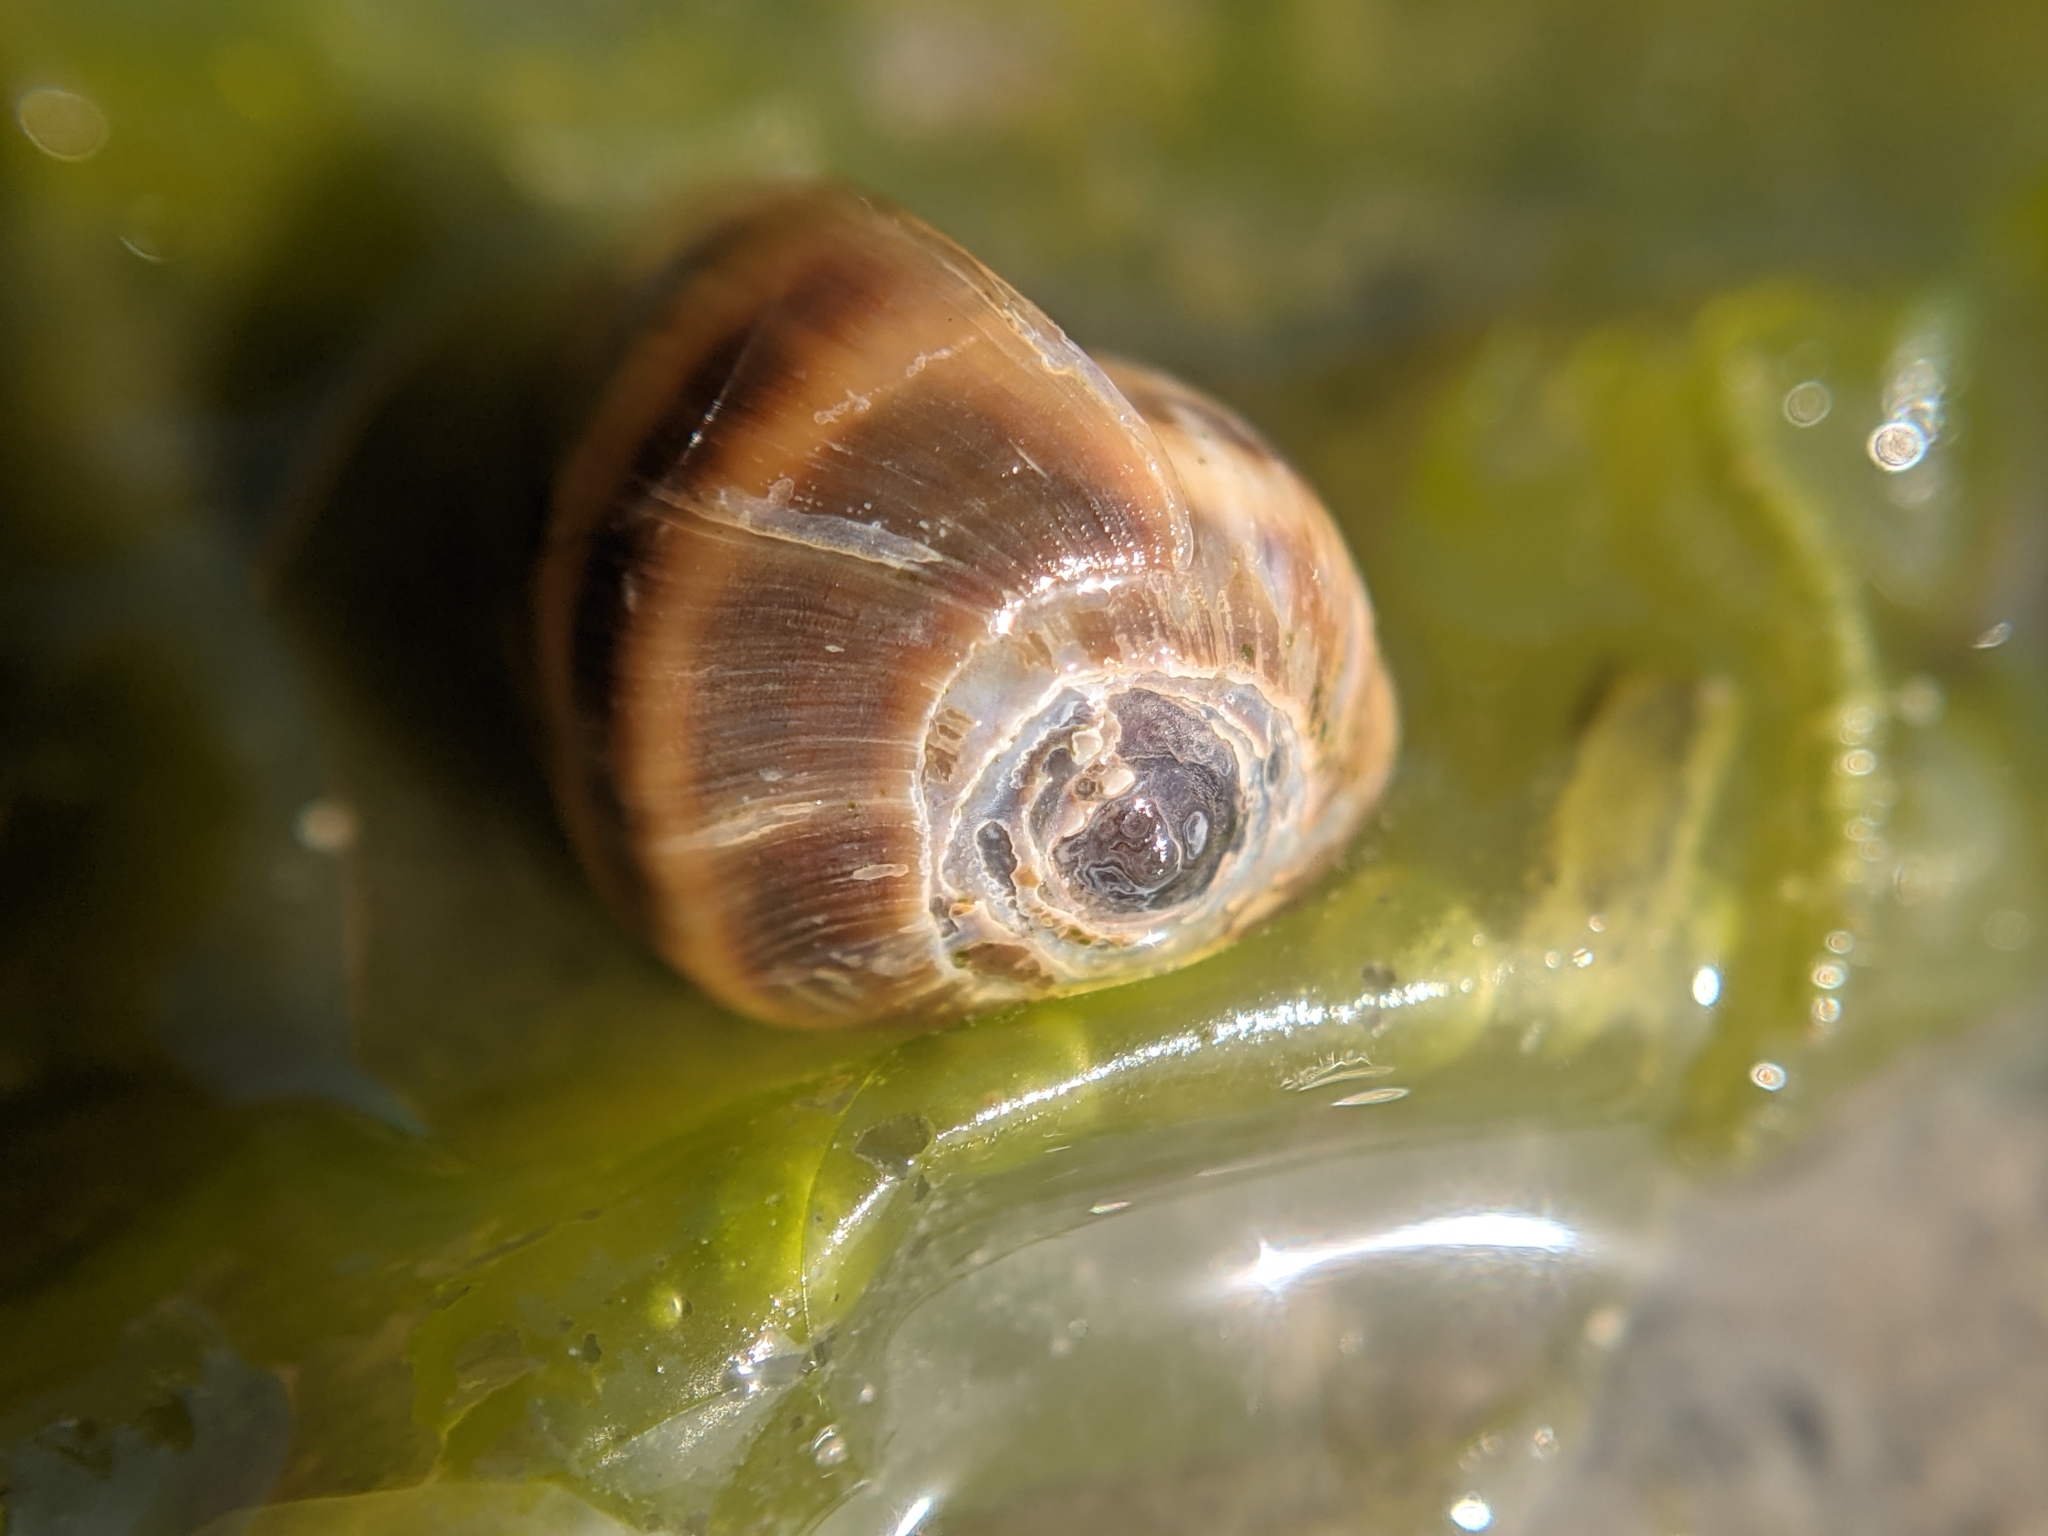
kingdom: Animalia
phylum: Mollusca
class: Gastropoda
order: Ellobiida
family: Ellobiidae
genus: Melampus
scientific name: Melampus olivaceus
